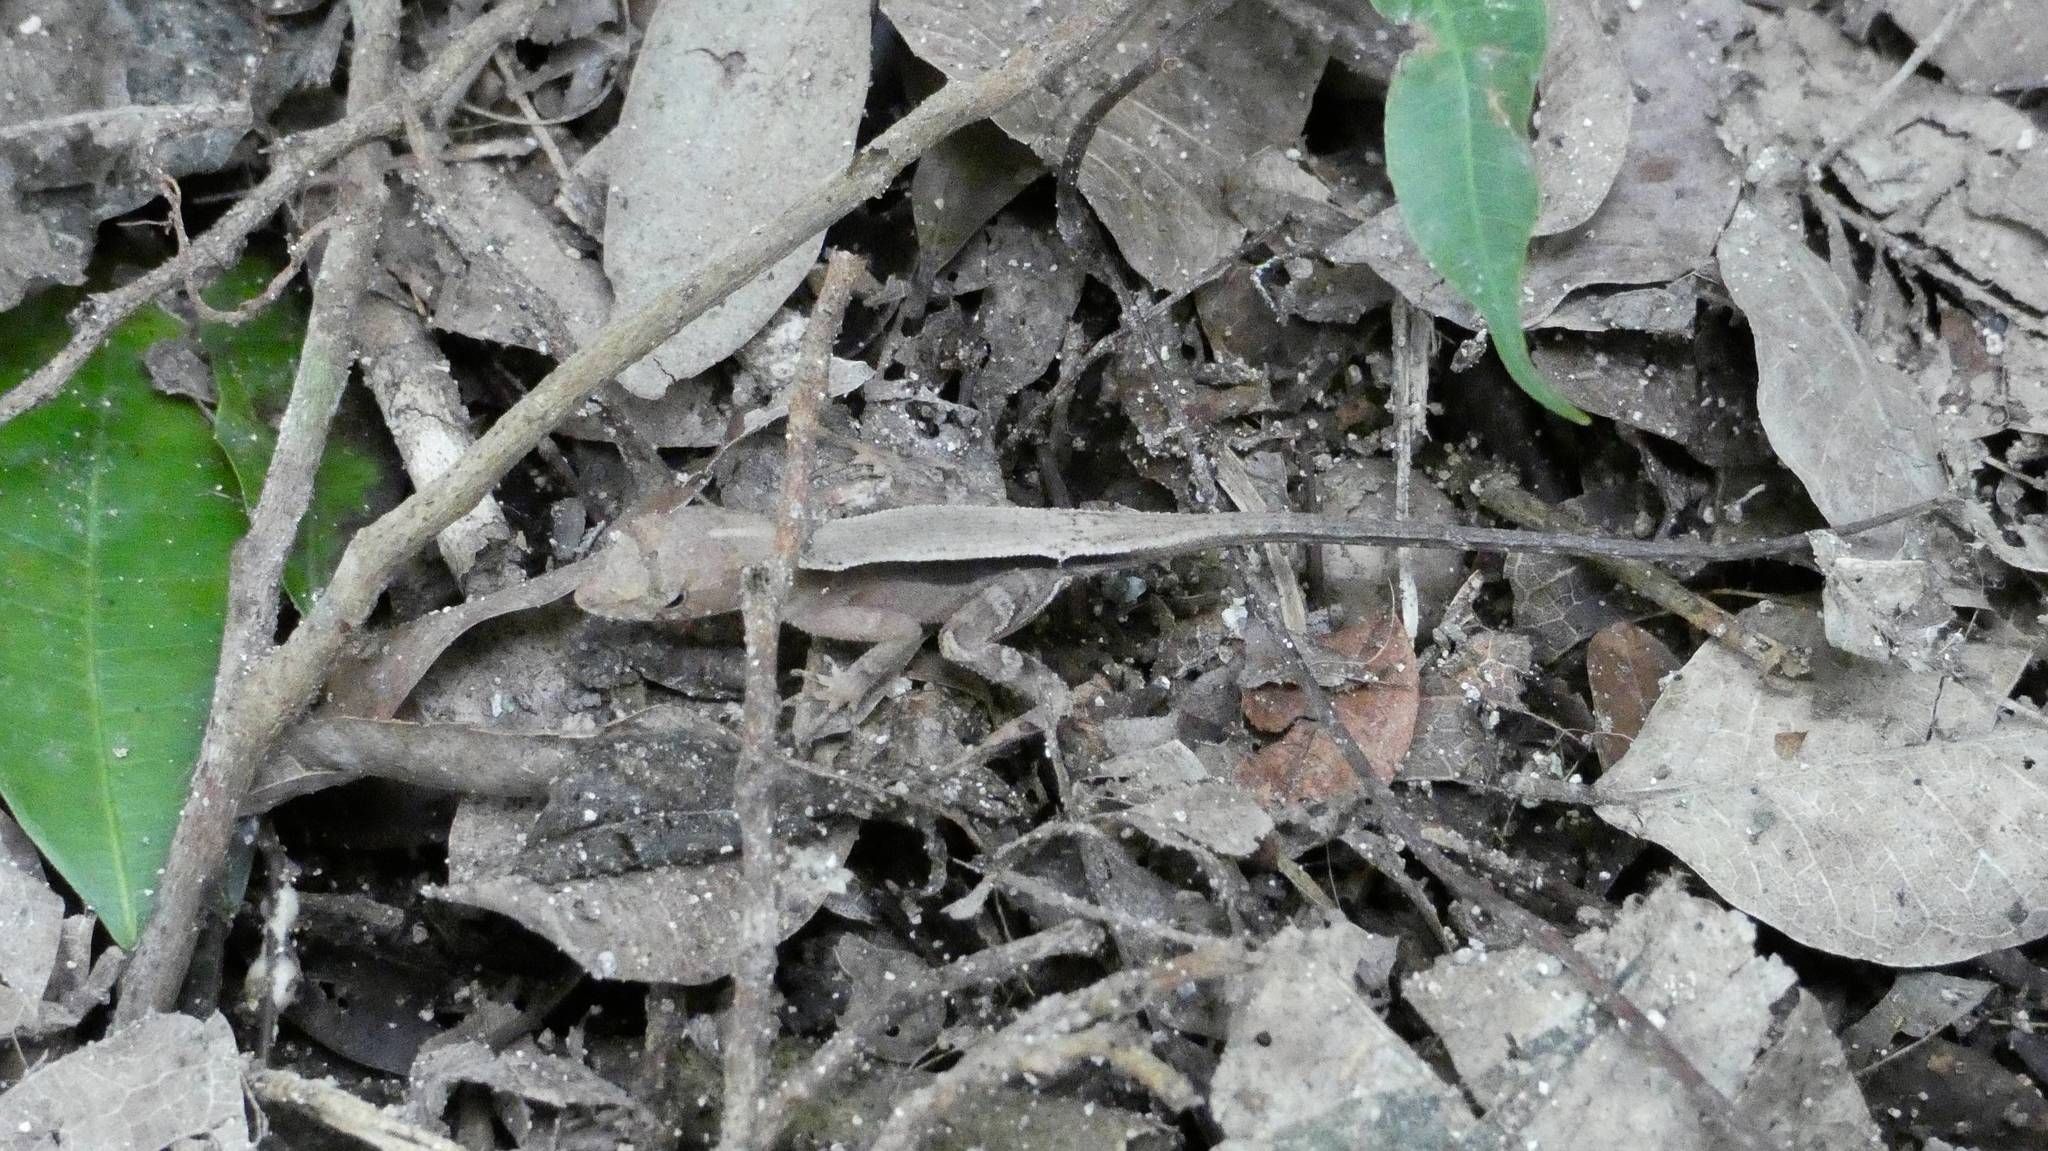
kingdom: Animalia
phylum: Chordata
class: Squamata
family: Dactyloidae
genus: Anolis
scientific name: Anolis tropidonotus
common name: Greater scaly anole
